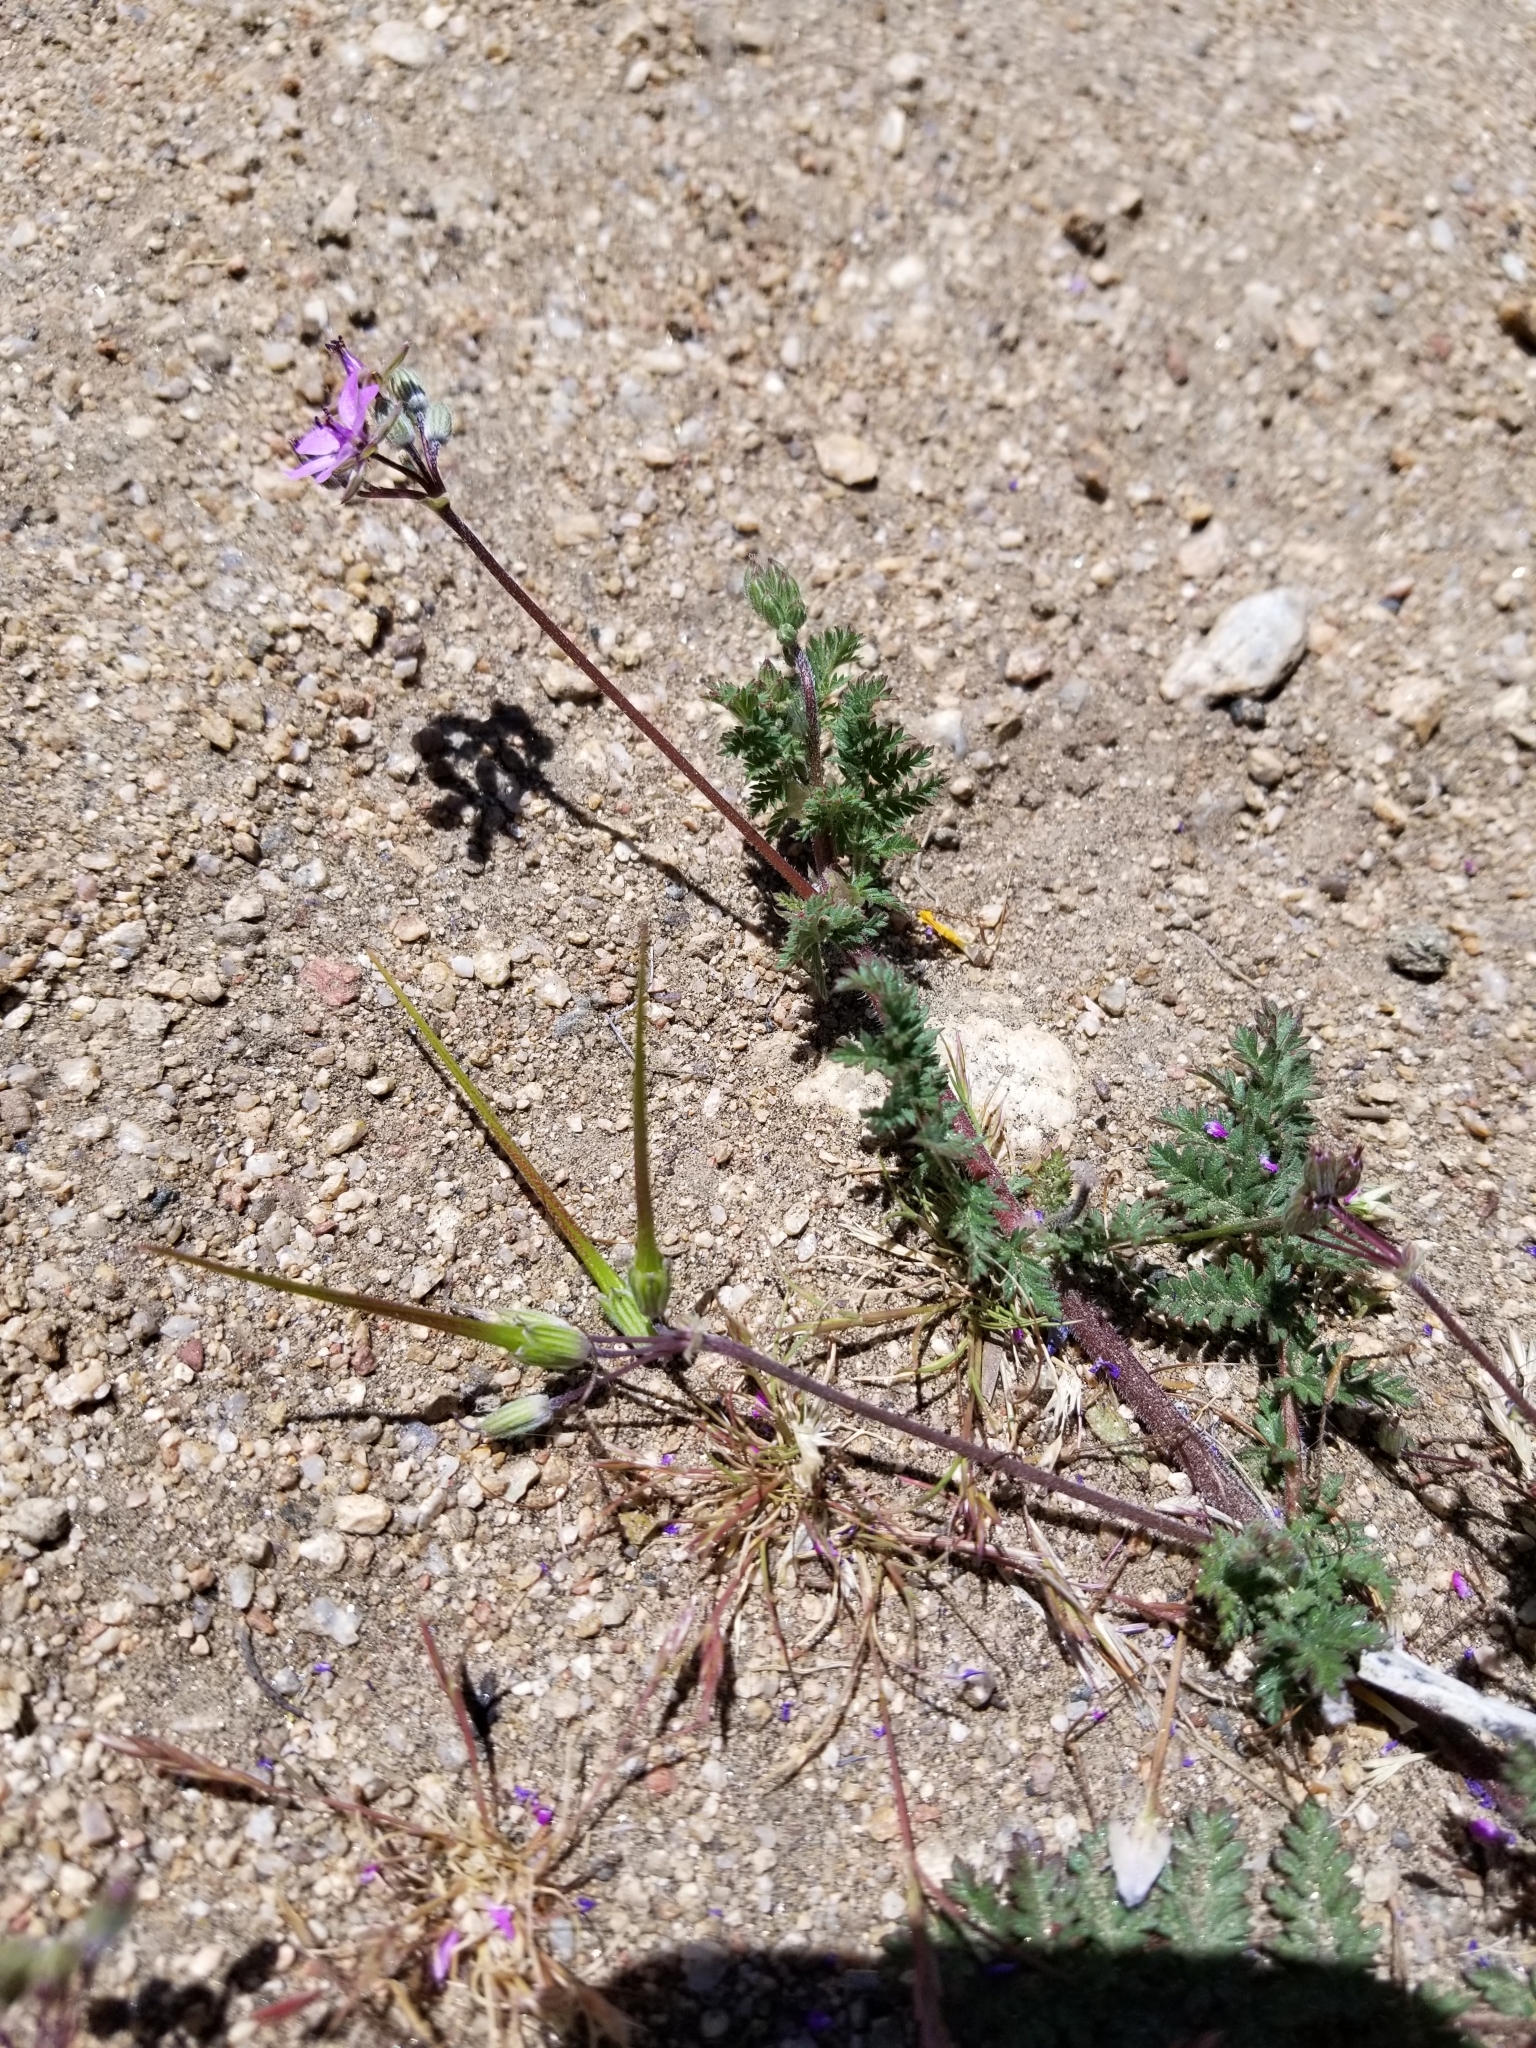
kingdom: Plantae
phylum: Tracheophyta
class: Magnoliopsida
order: Geraniales
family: Geraniaceae
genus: Erodium
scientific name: Erodium cicutarium
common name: Common stork's-bill
